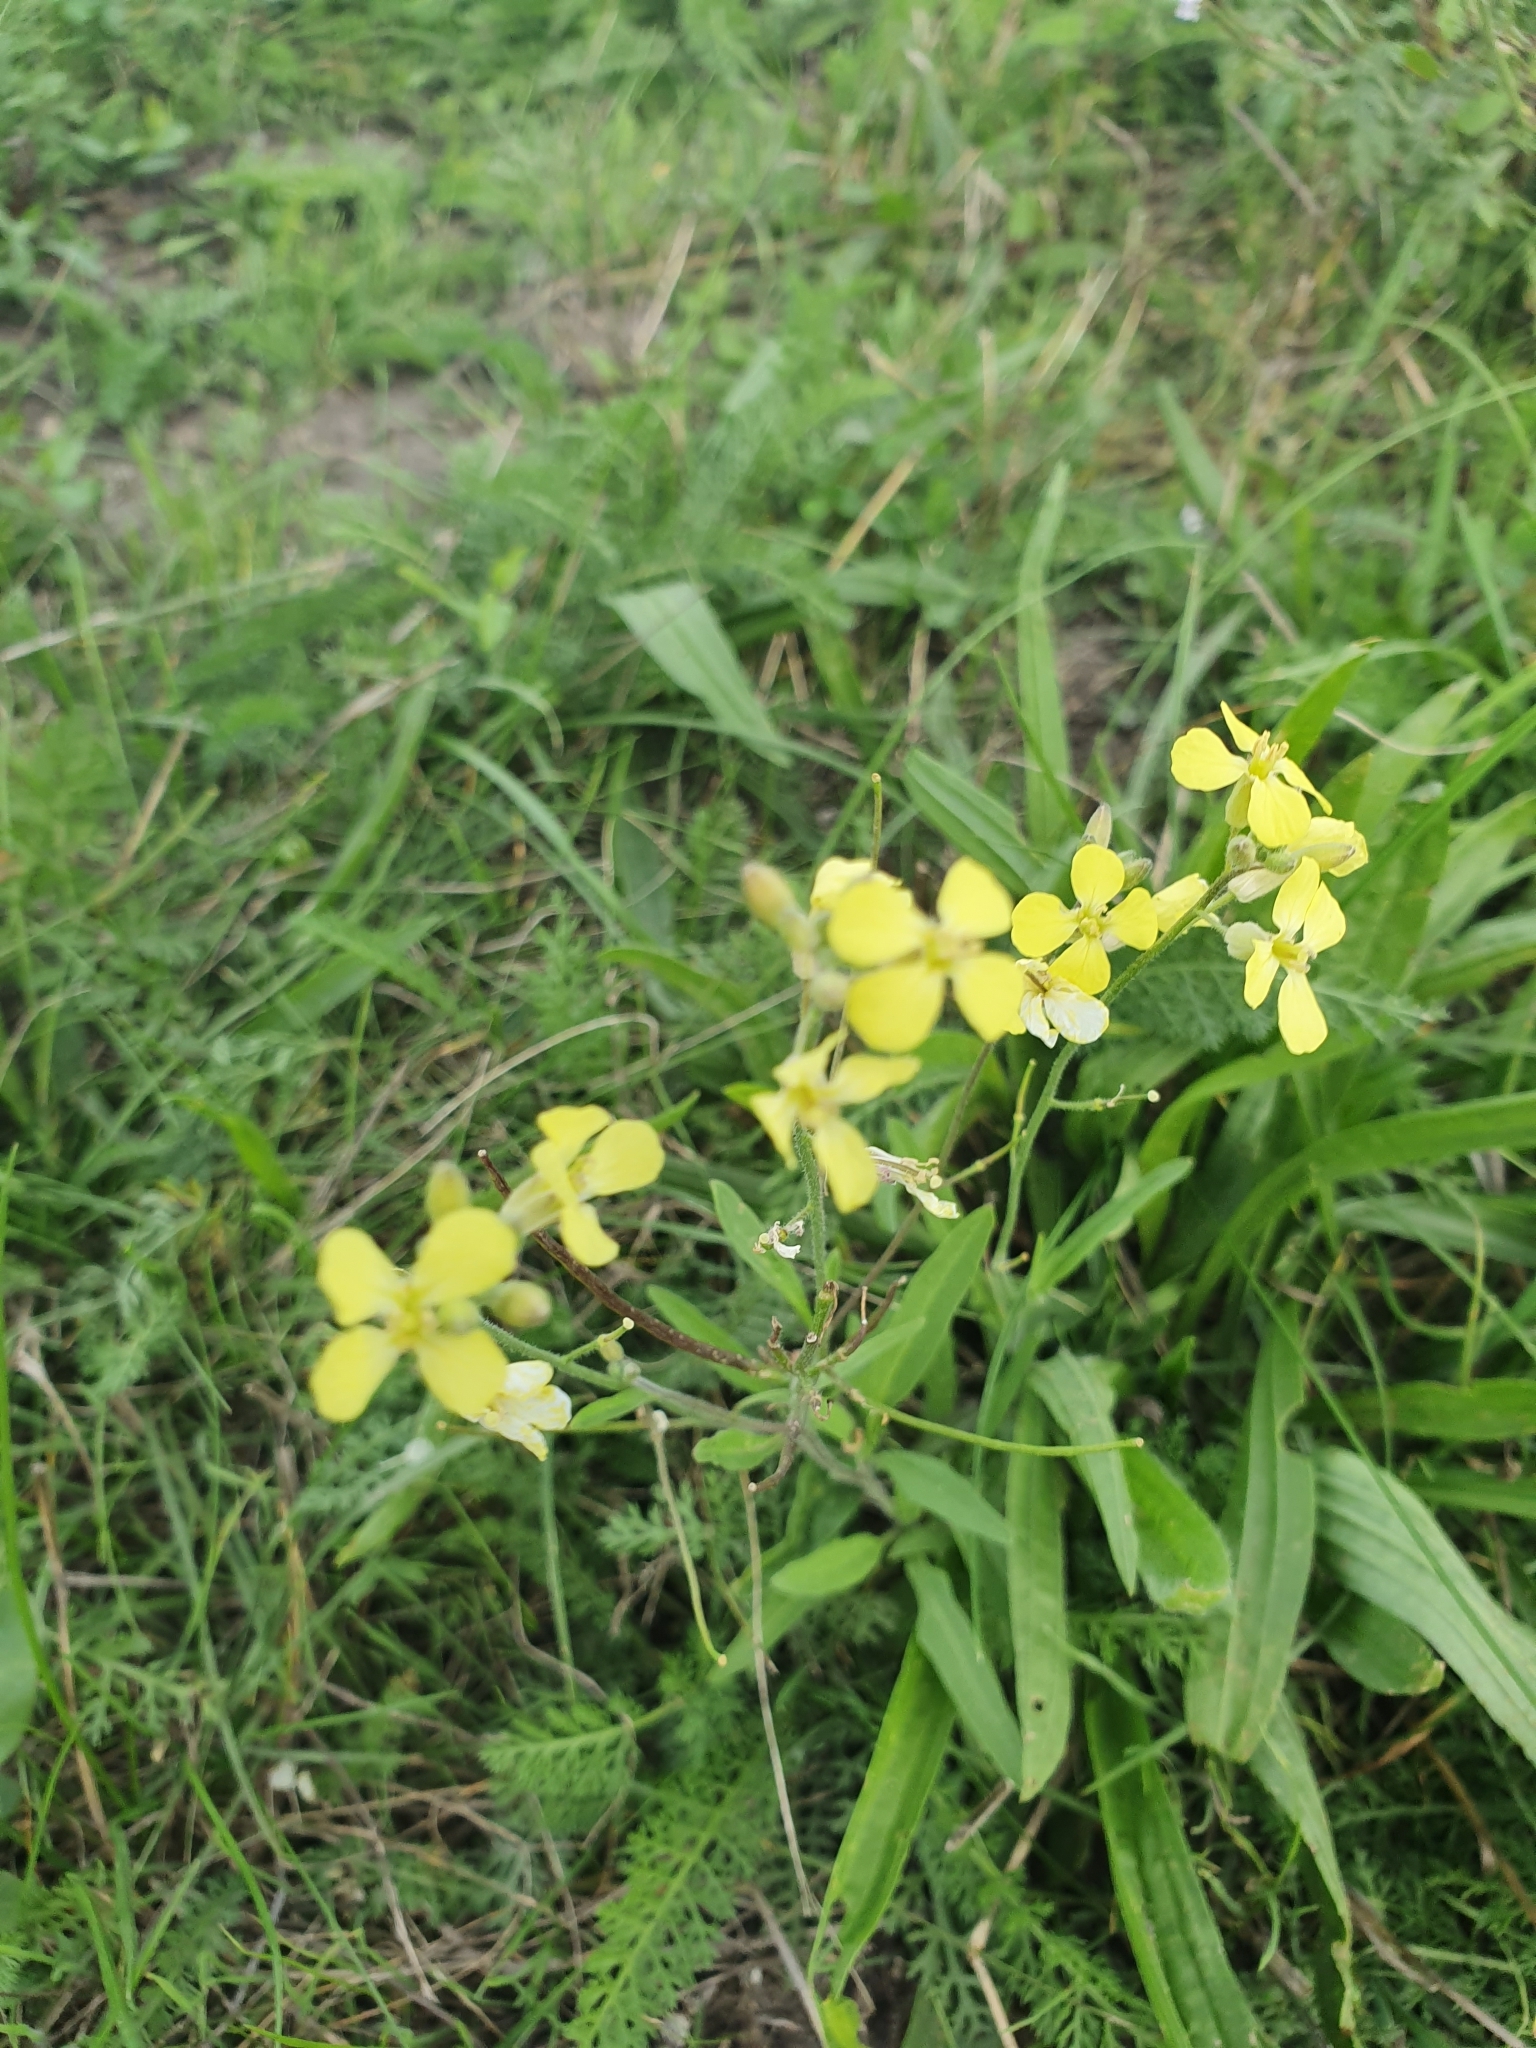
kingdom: Plantae
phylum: Tracheophyta
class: Magnoliopsida
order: Brassicales
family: Brassicaceae
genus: Sisymbrium
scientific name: Sisymbrium orientale
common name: Eastern rocket
